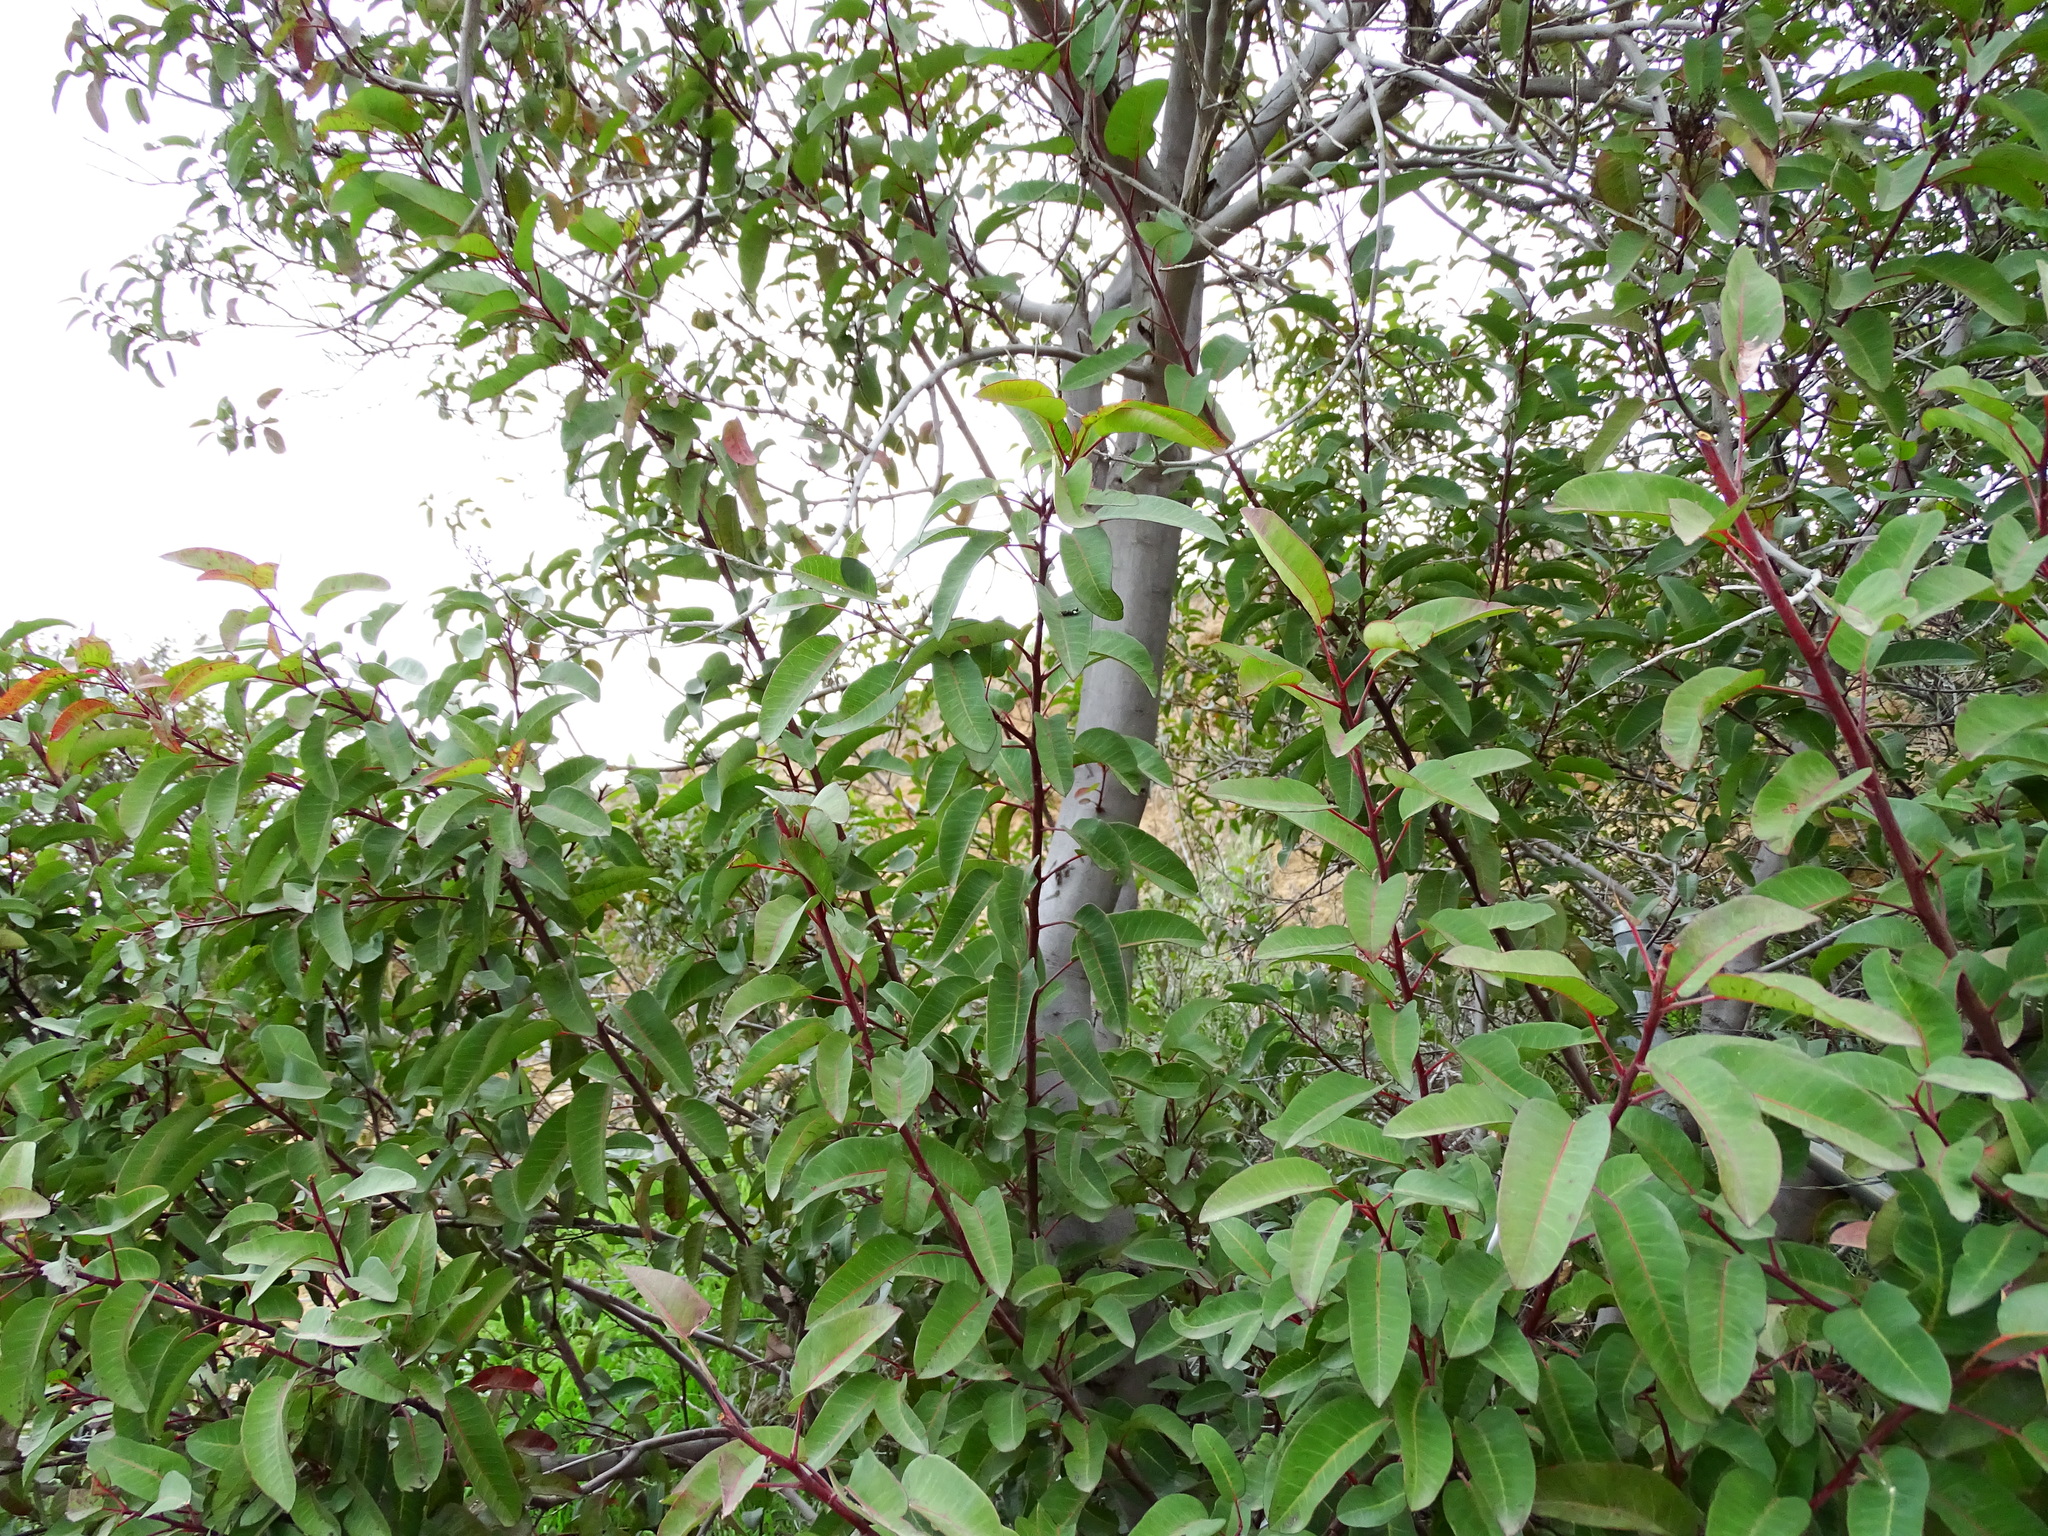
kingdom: Plantae
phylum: Tracheophyta
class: Magnoliopsida
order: Sapindales
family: Anacardiaceae
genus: Malosma
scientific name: Malosma laurina
